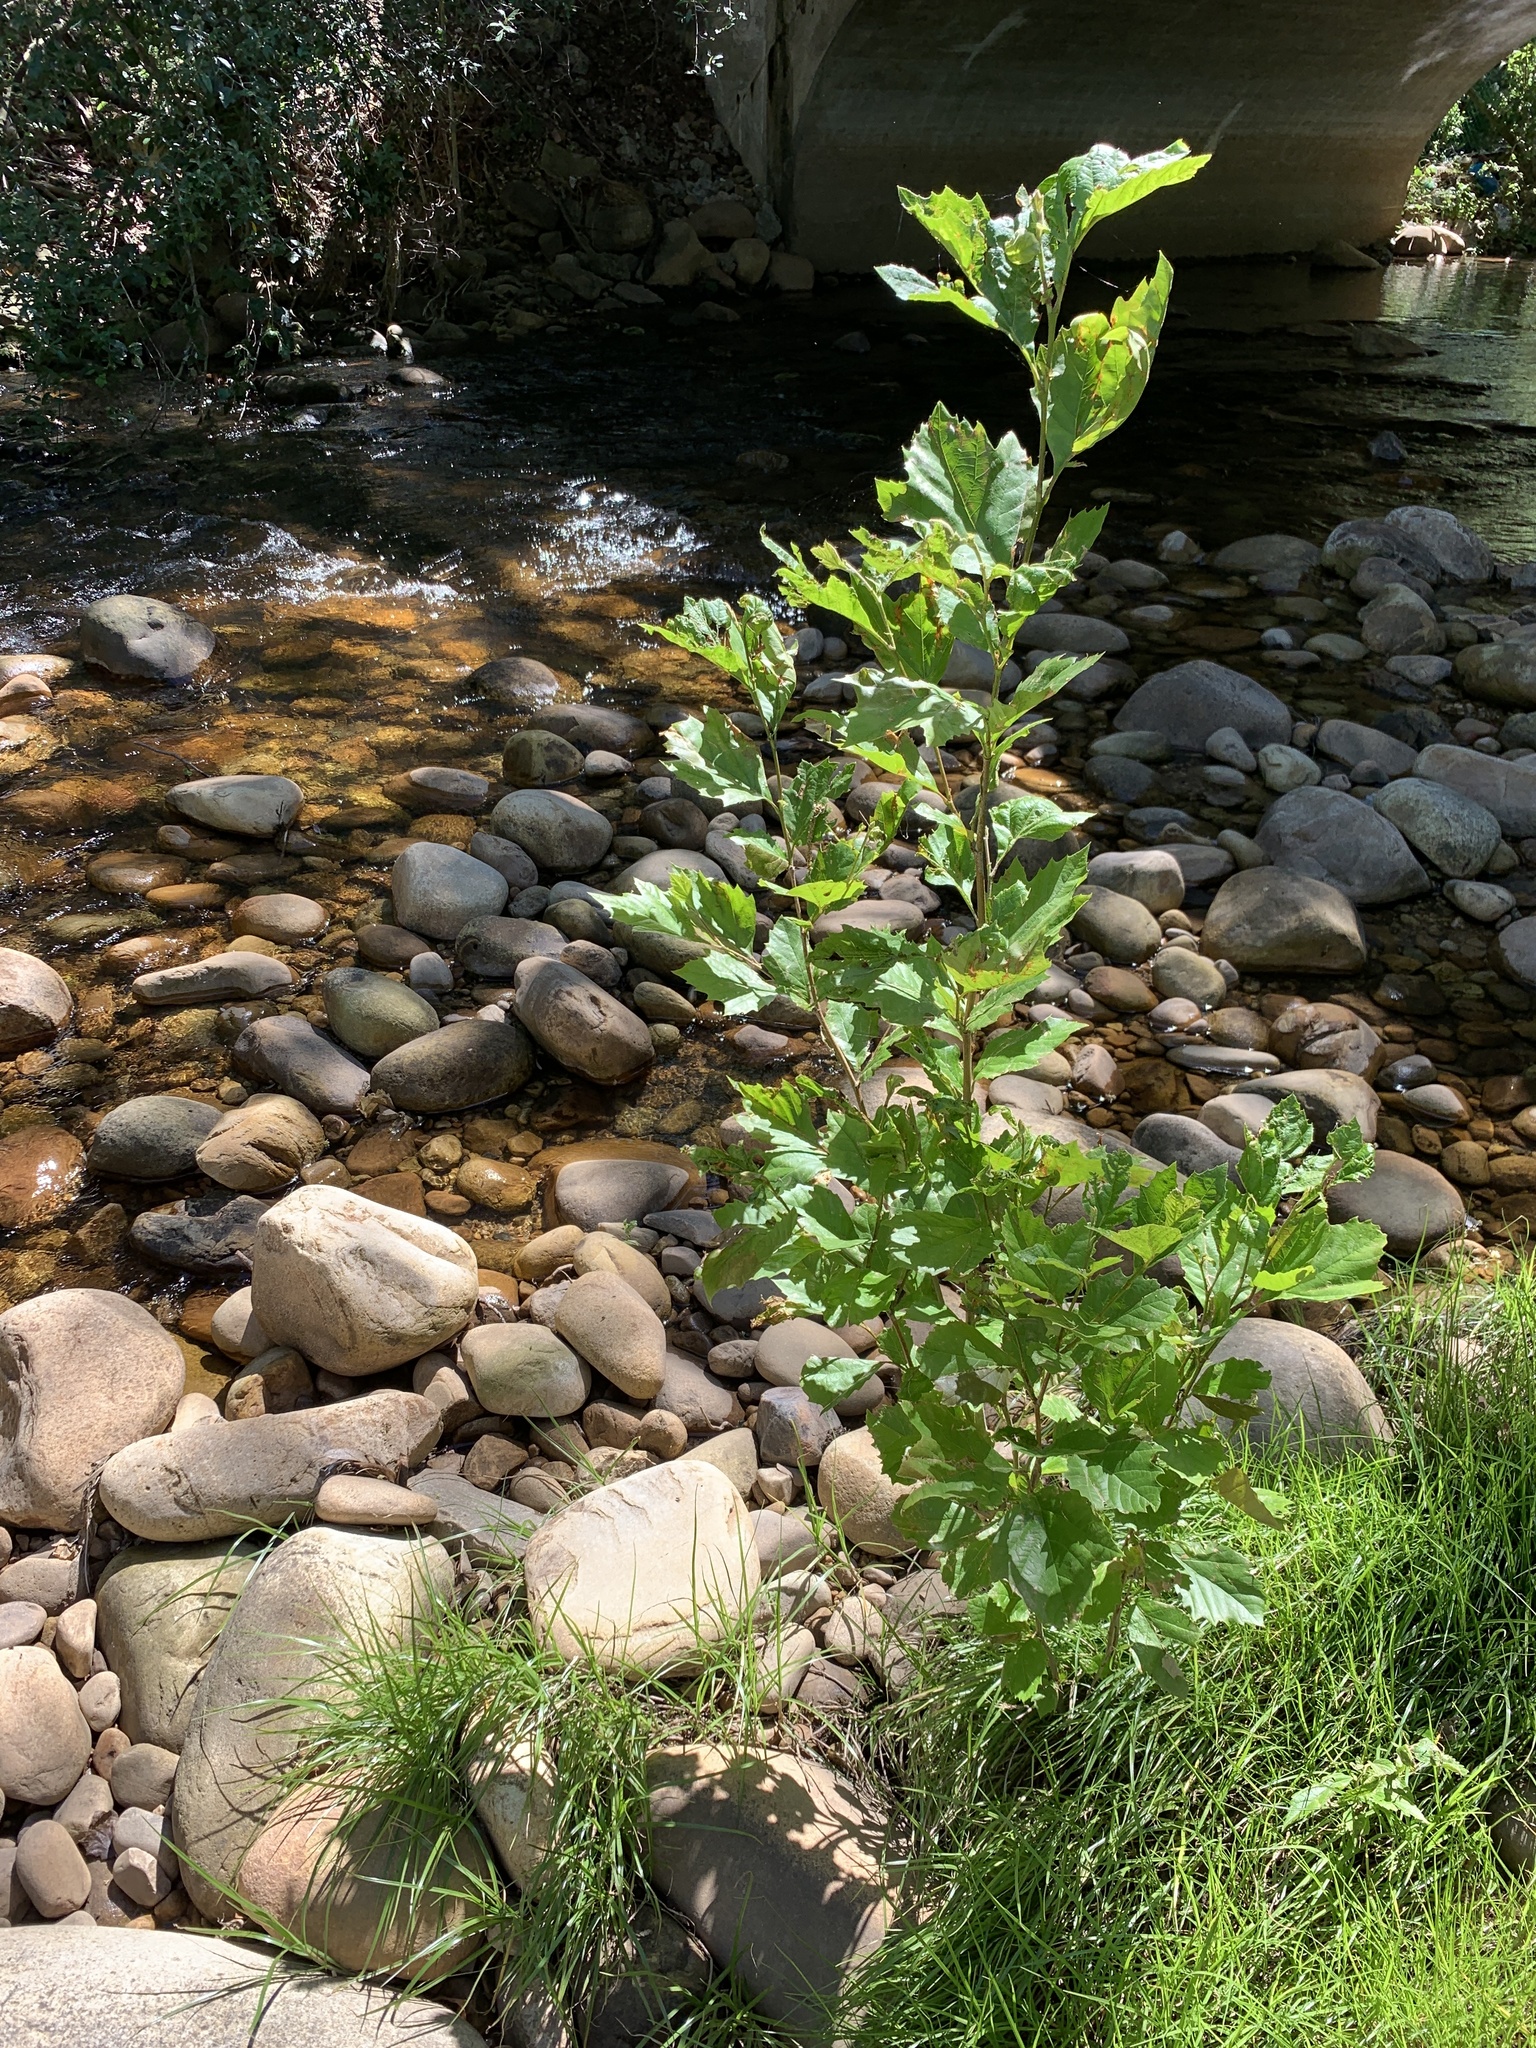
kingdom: Plantae
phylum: Tracheophyta
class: Magnoliopsida
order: Proteales
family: Platanaceae
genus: Platanus
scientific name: Platanus hispanica
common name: London plane
